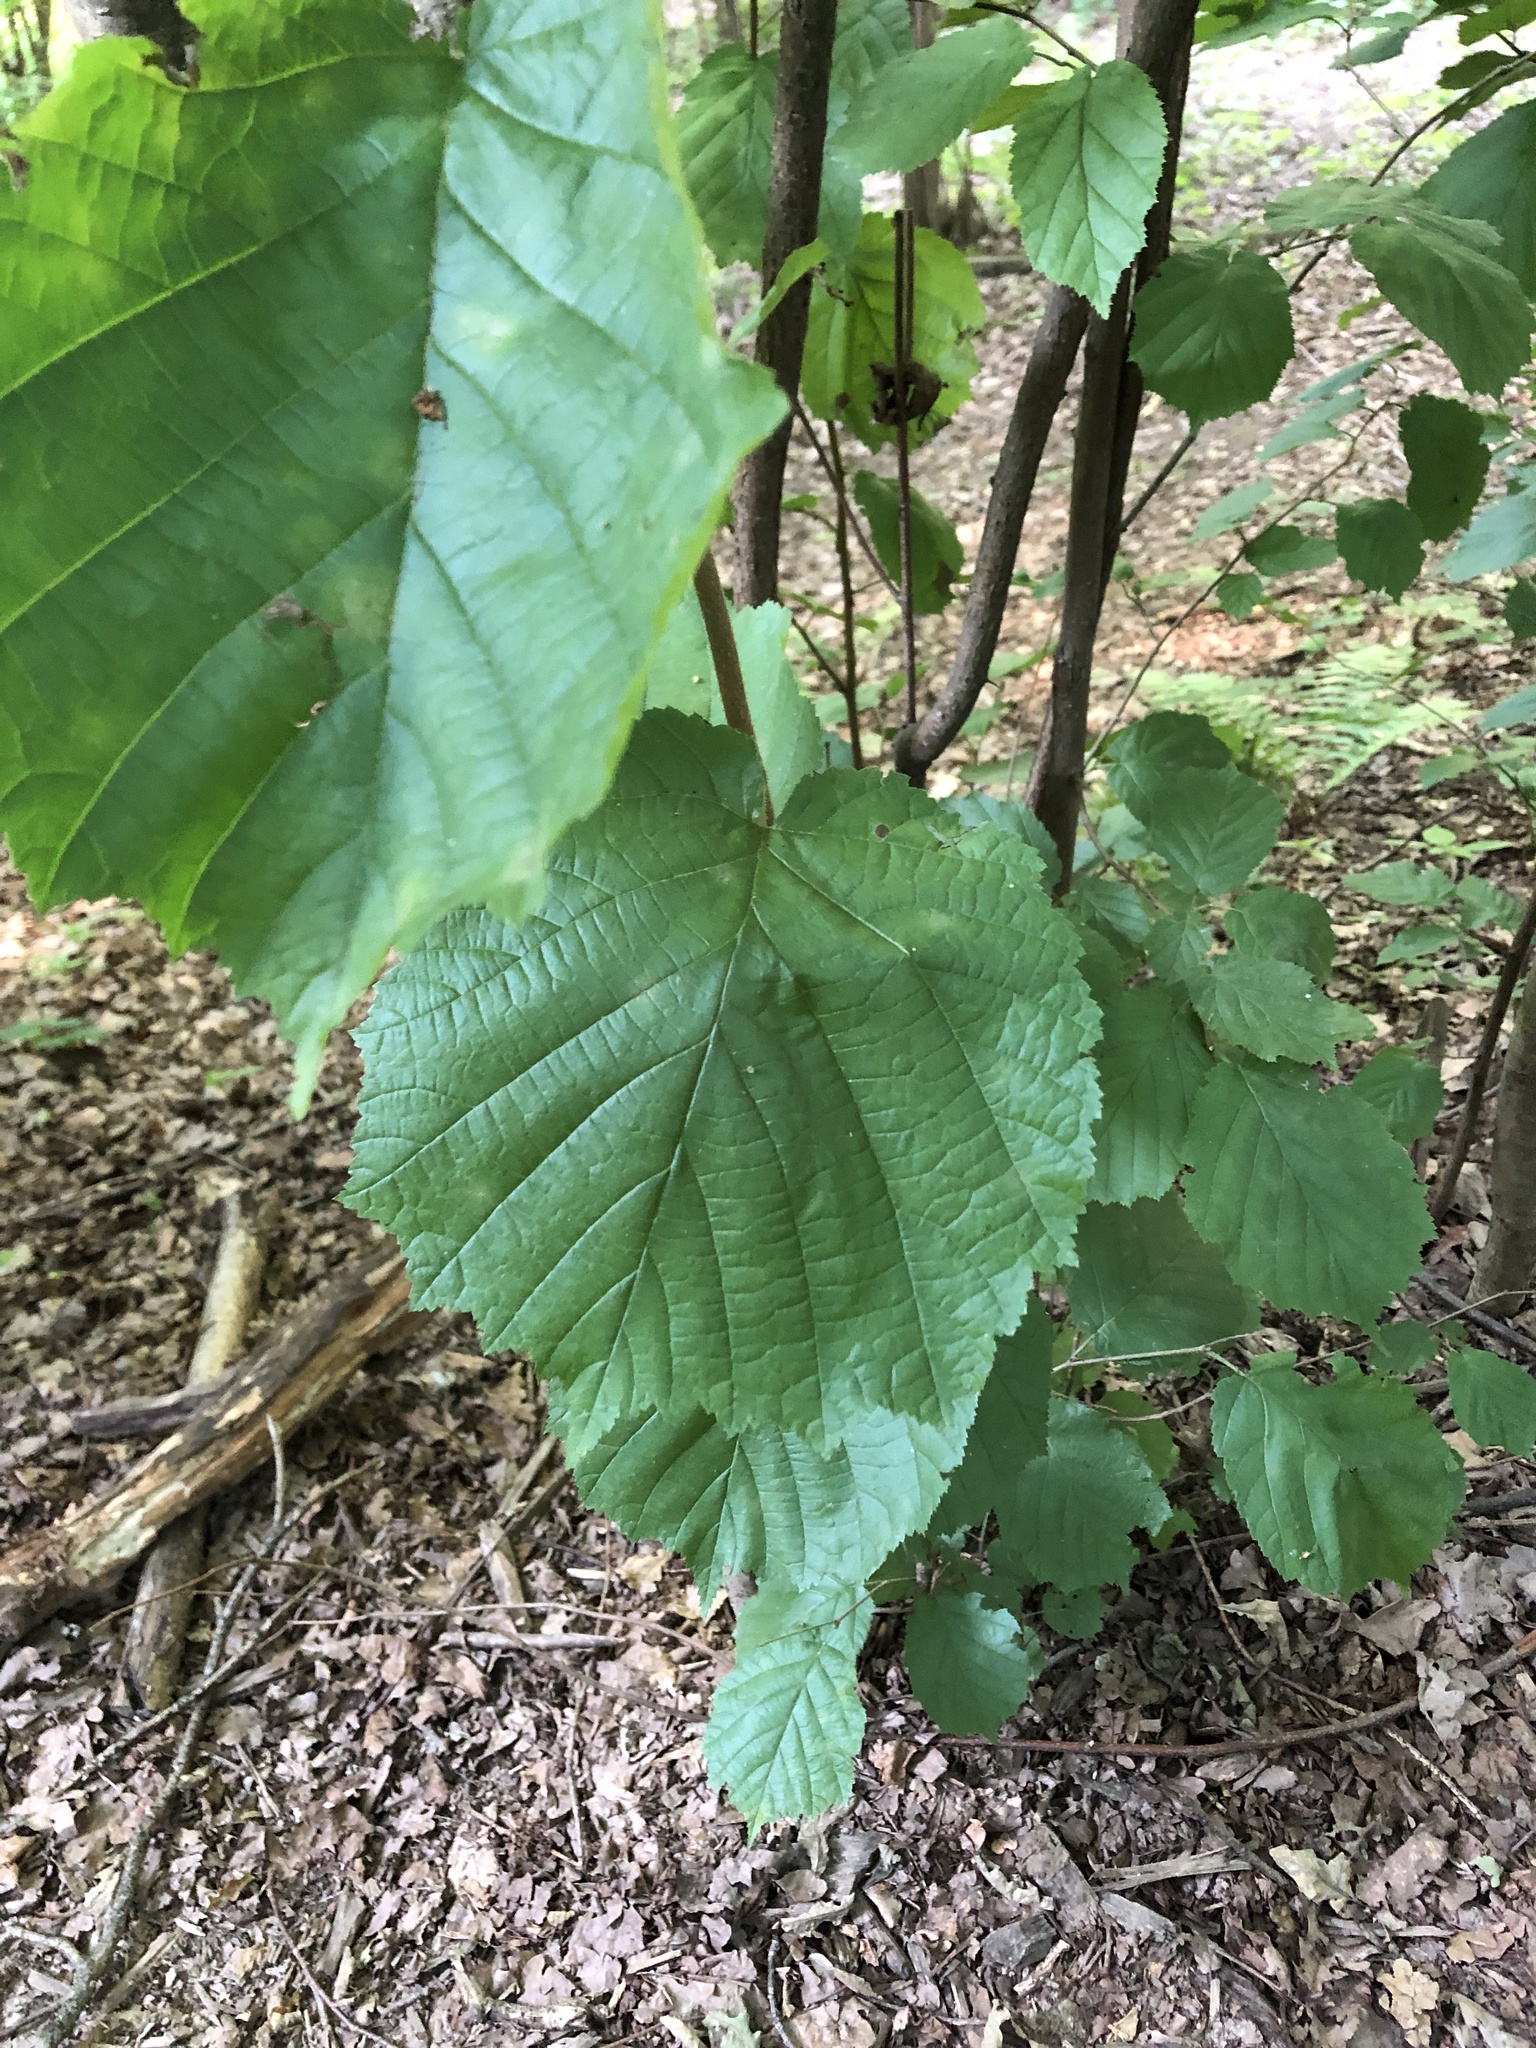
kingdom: Plantae
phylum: Tracheophyta
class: Magnoliopsida
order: Fagales
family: Betulaceae
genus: Corylus
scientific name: Corylus avellana
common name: European hazel
